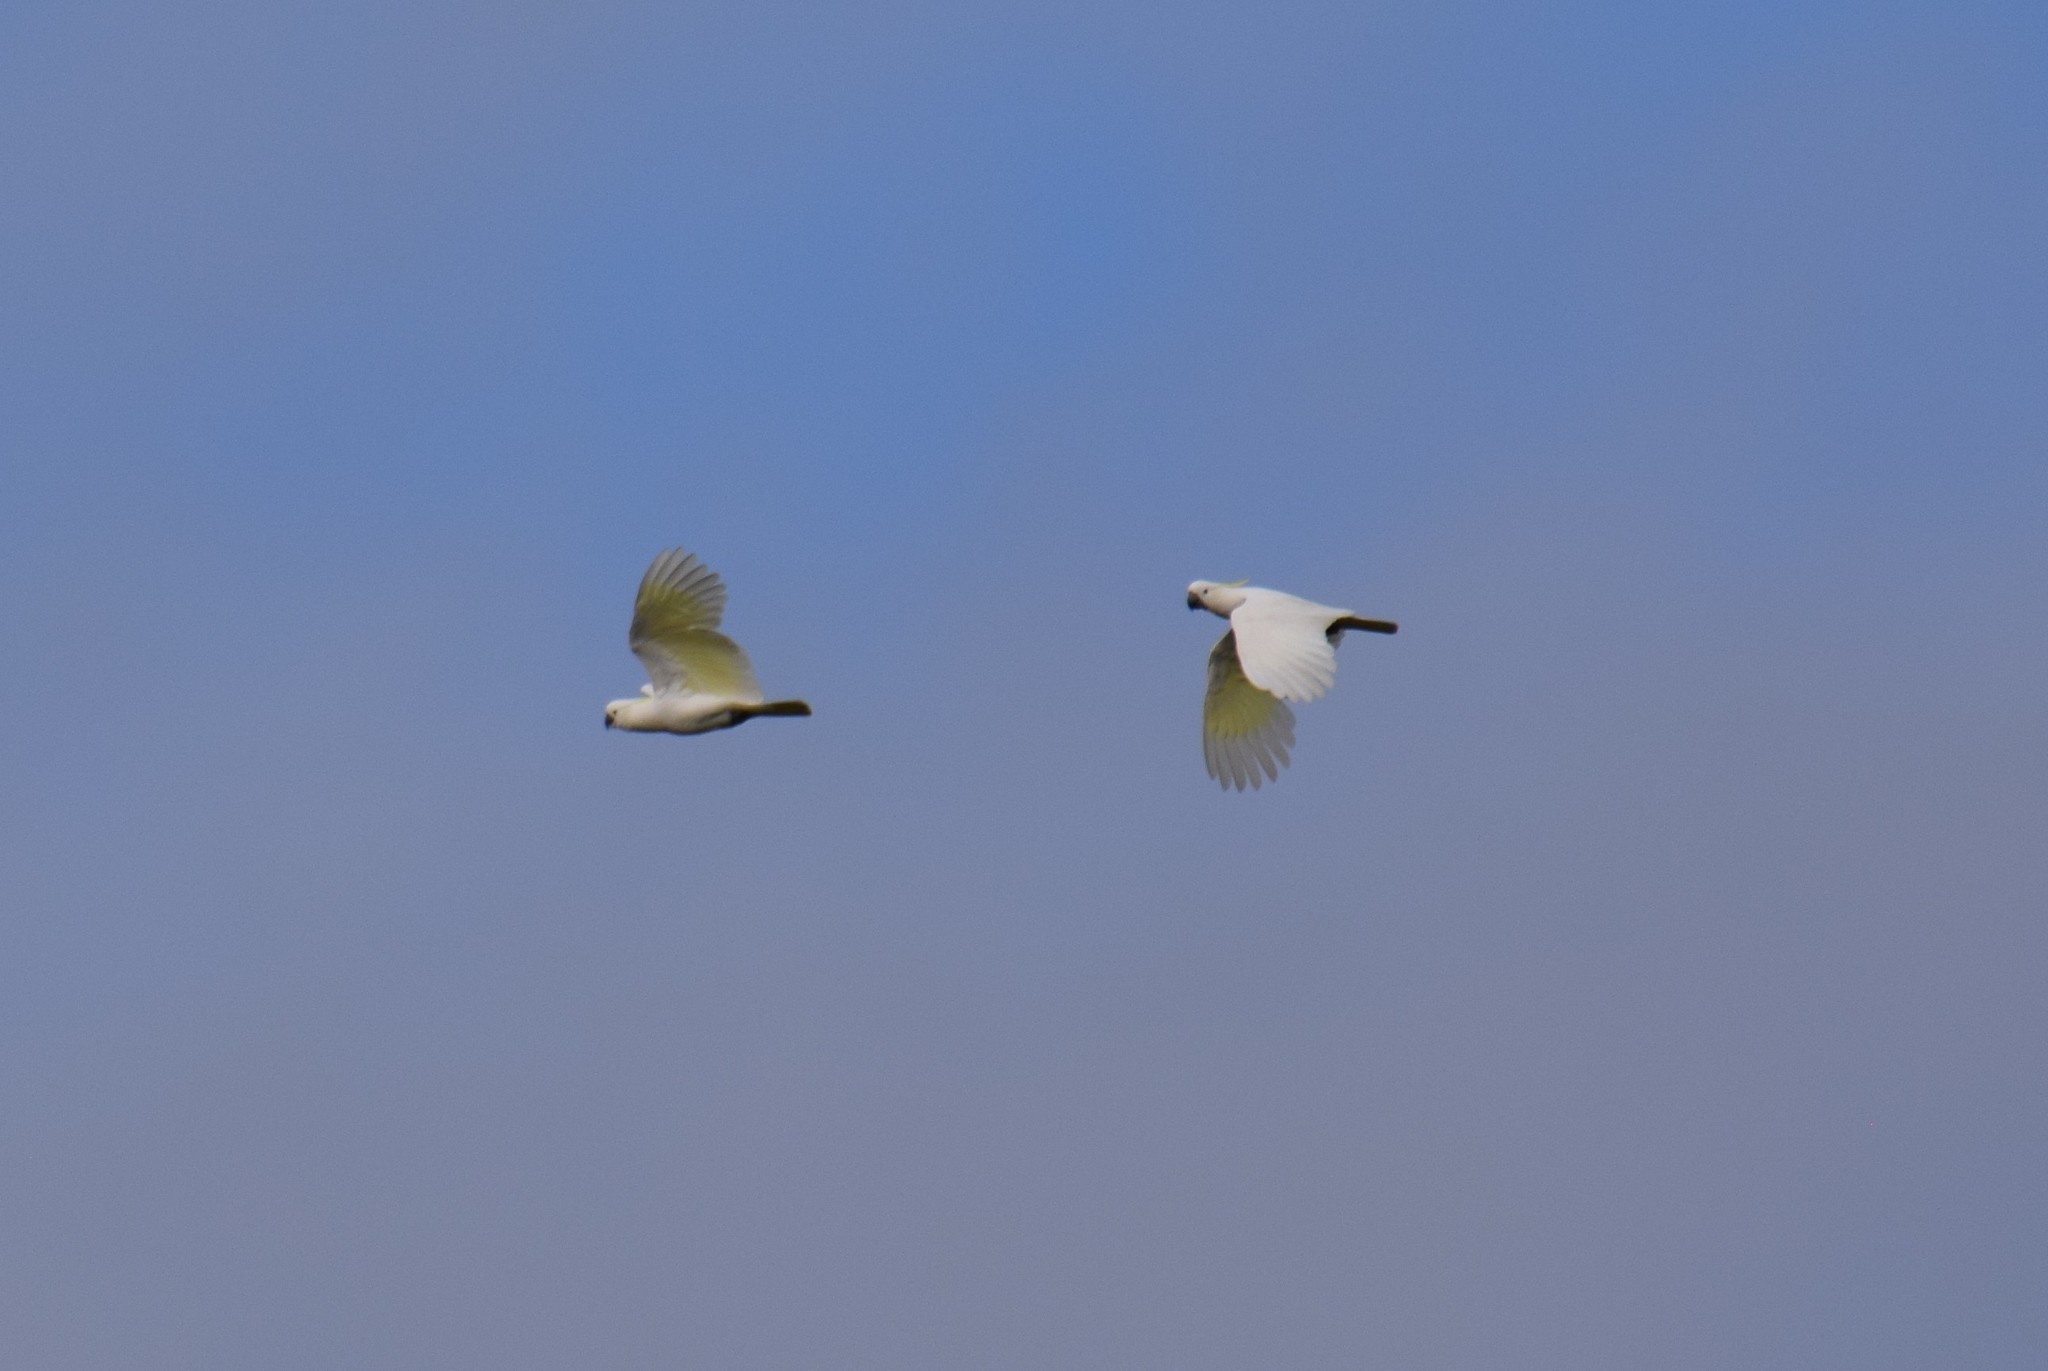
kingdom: Animalia
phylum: Chordata
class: Aves
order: Psittaciformes
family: Psittacidae
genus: Cacatua
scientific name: Cacatua galerita
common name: Sulphur-crested cockatoo
